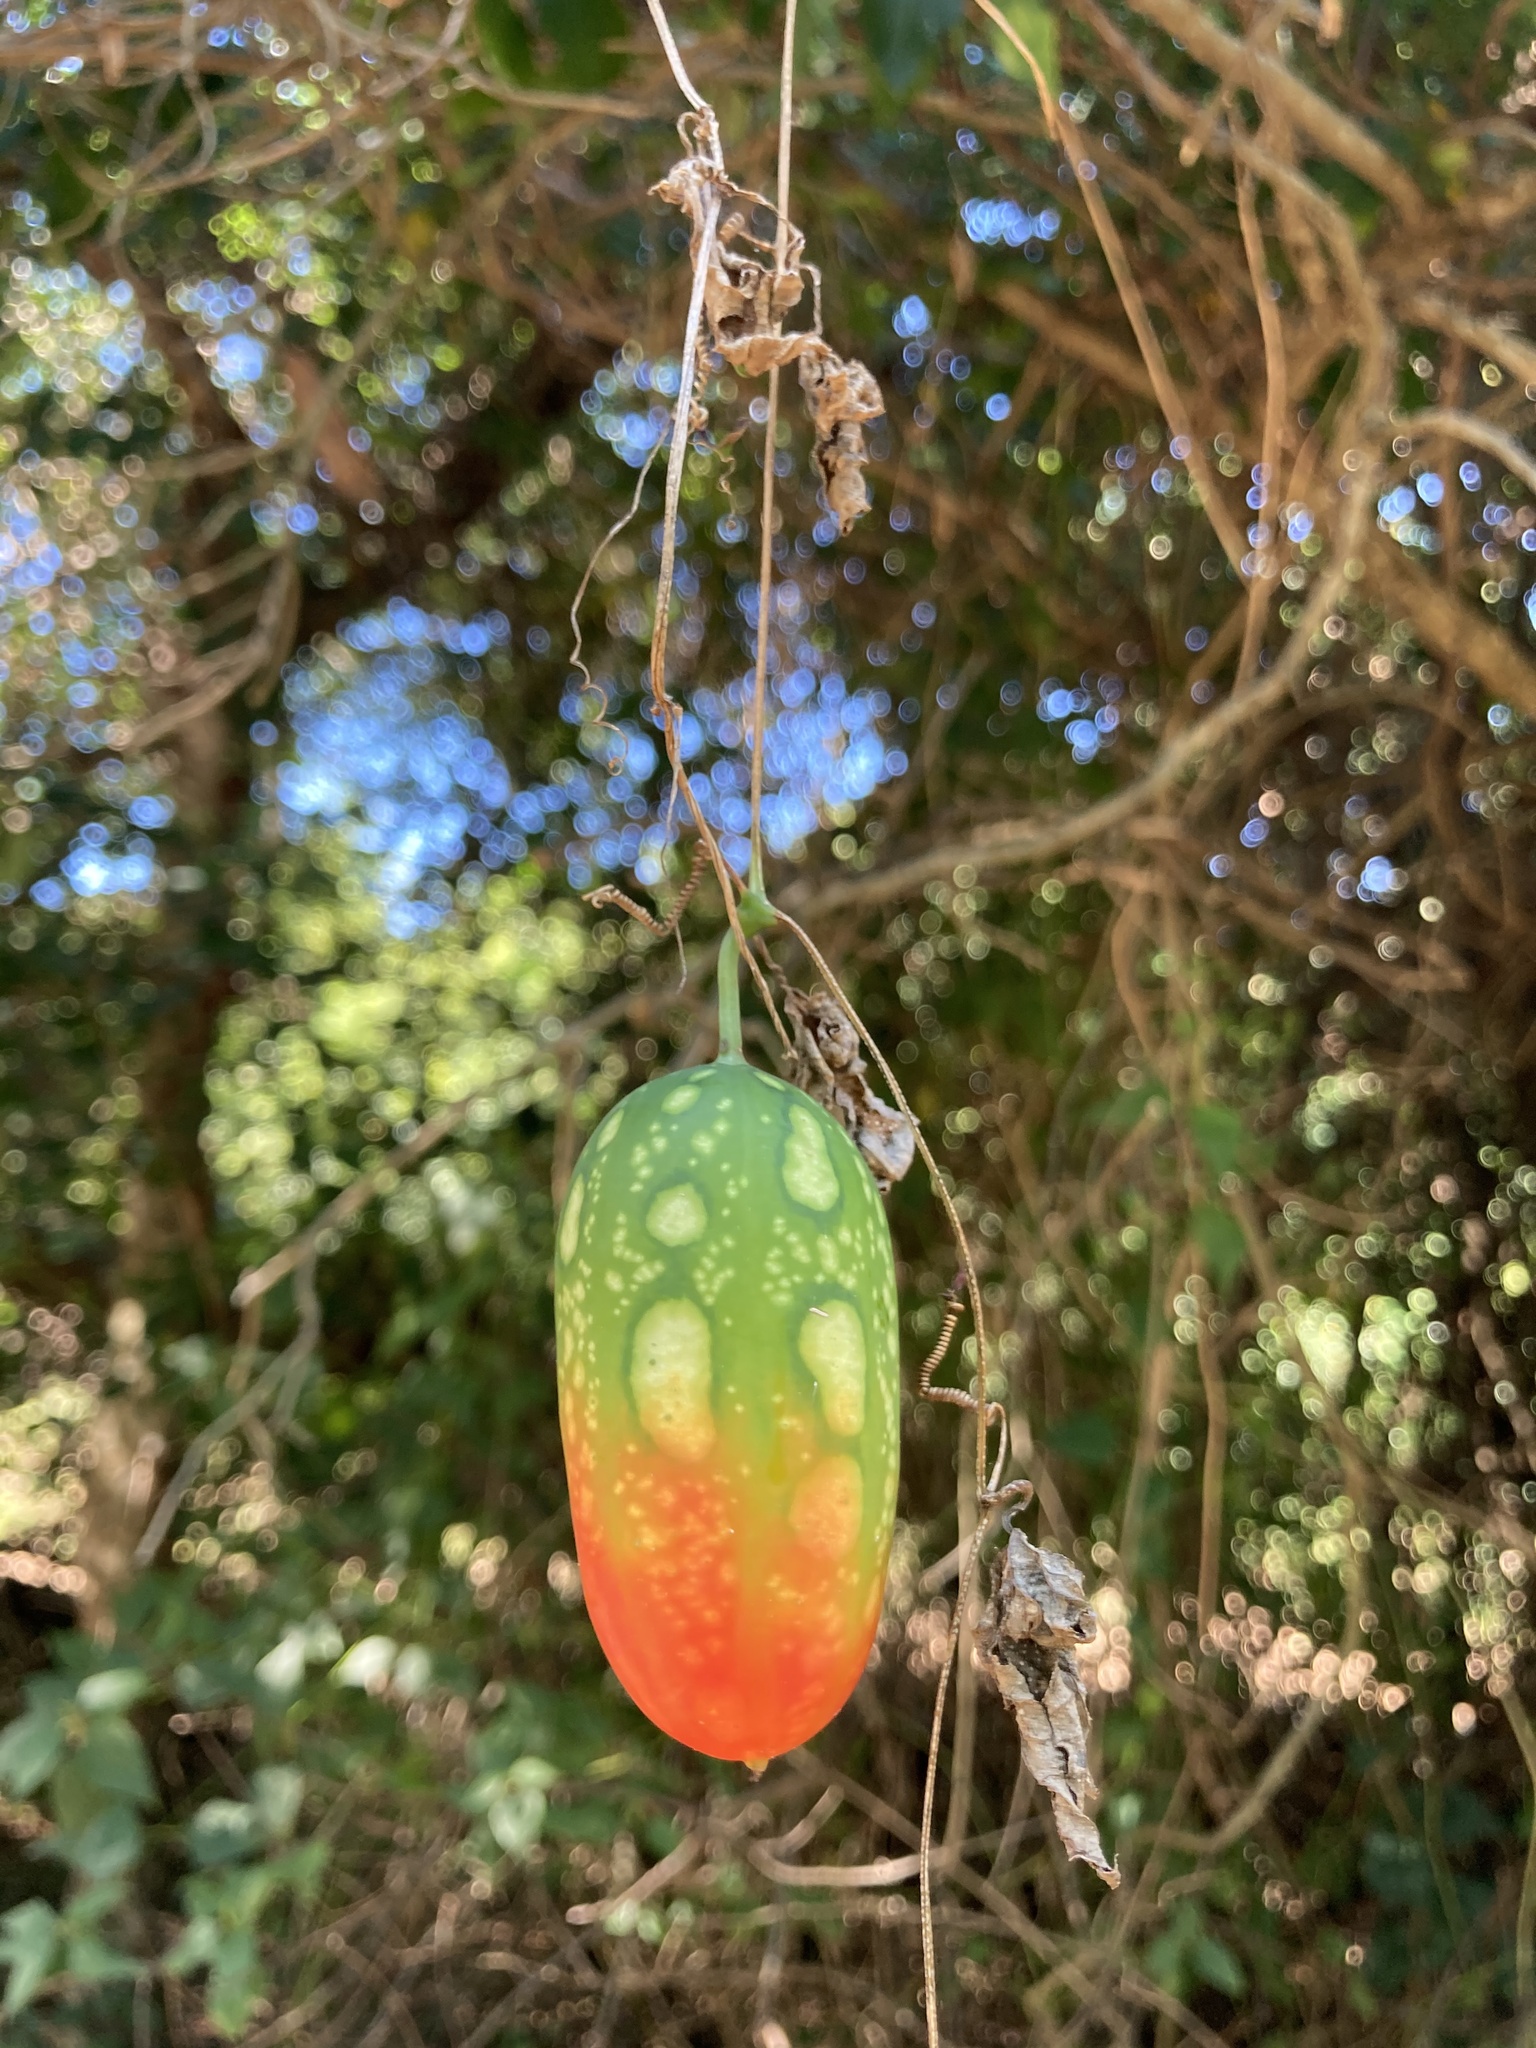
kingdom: Plantae
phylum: Tracheophyta
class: Magnoliopsida
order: Cucurbitales
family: Cucurbitaceae
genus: Coccinia
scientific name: Coccinia rehmannii
